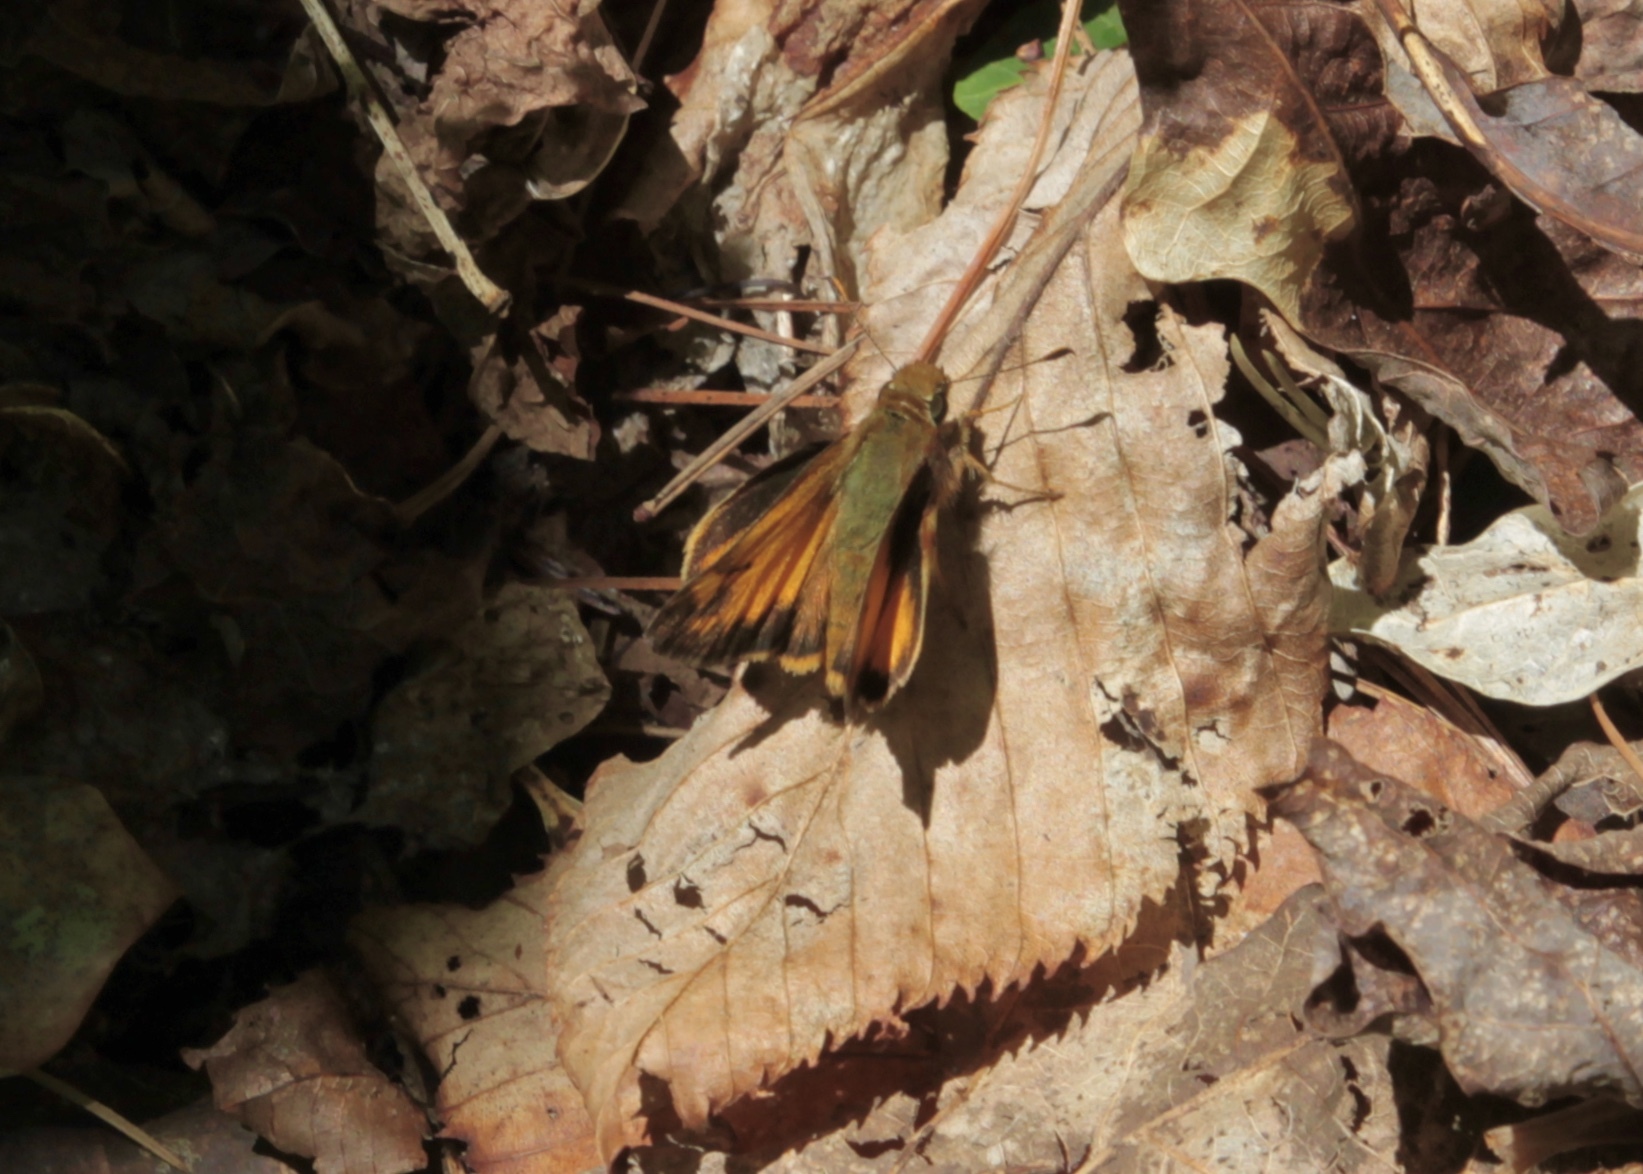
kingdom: Animalia
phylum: Arthropoda
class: Insecta
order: Lepidoptera
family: Hesperiidae
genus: Lon
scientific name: Lon zabulon
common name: Zabulon skipper
